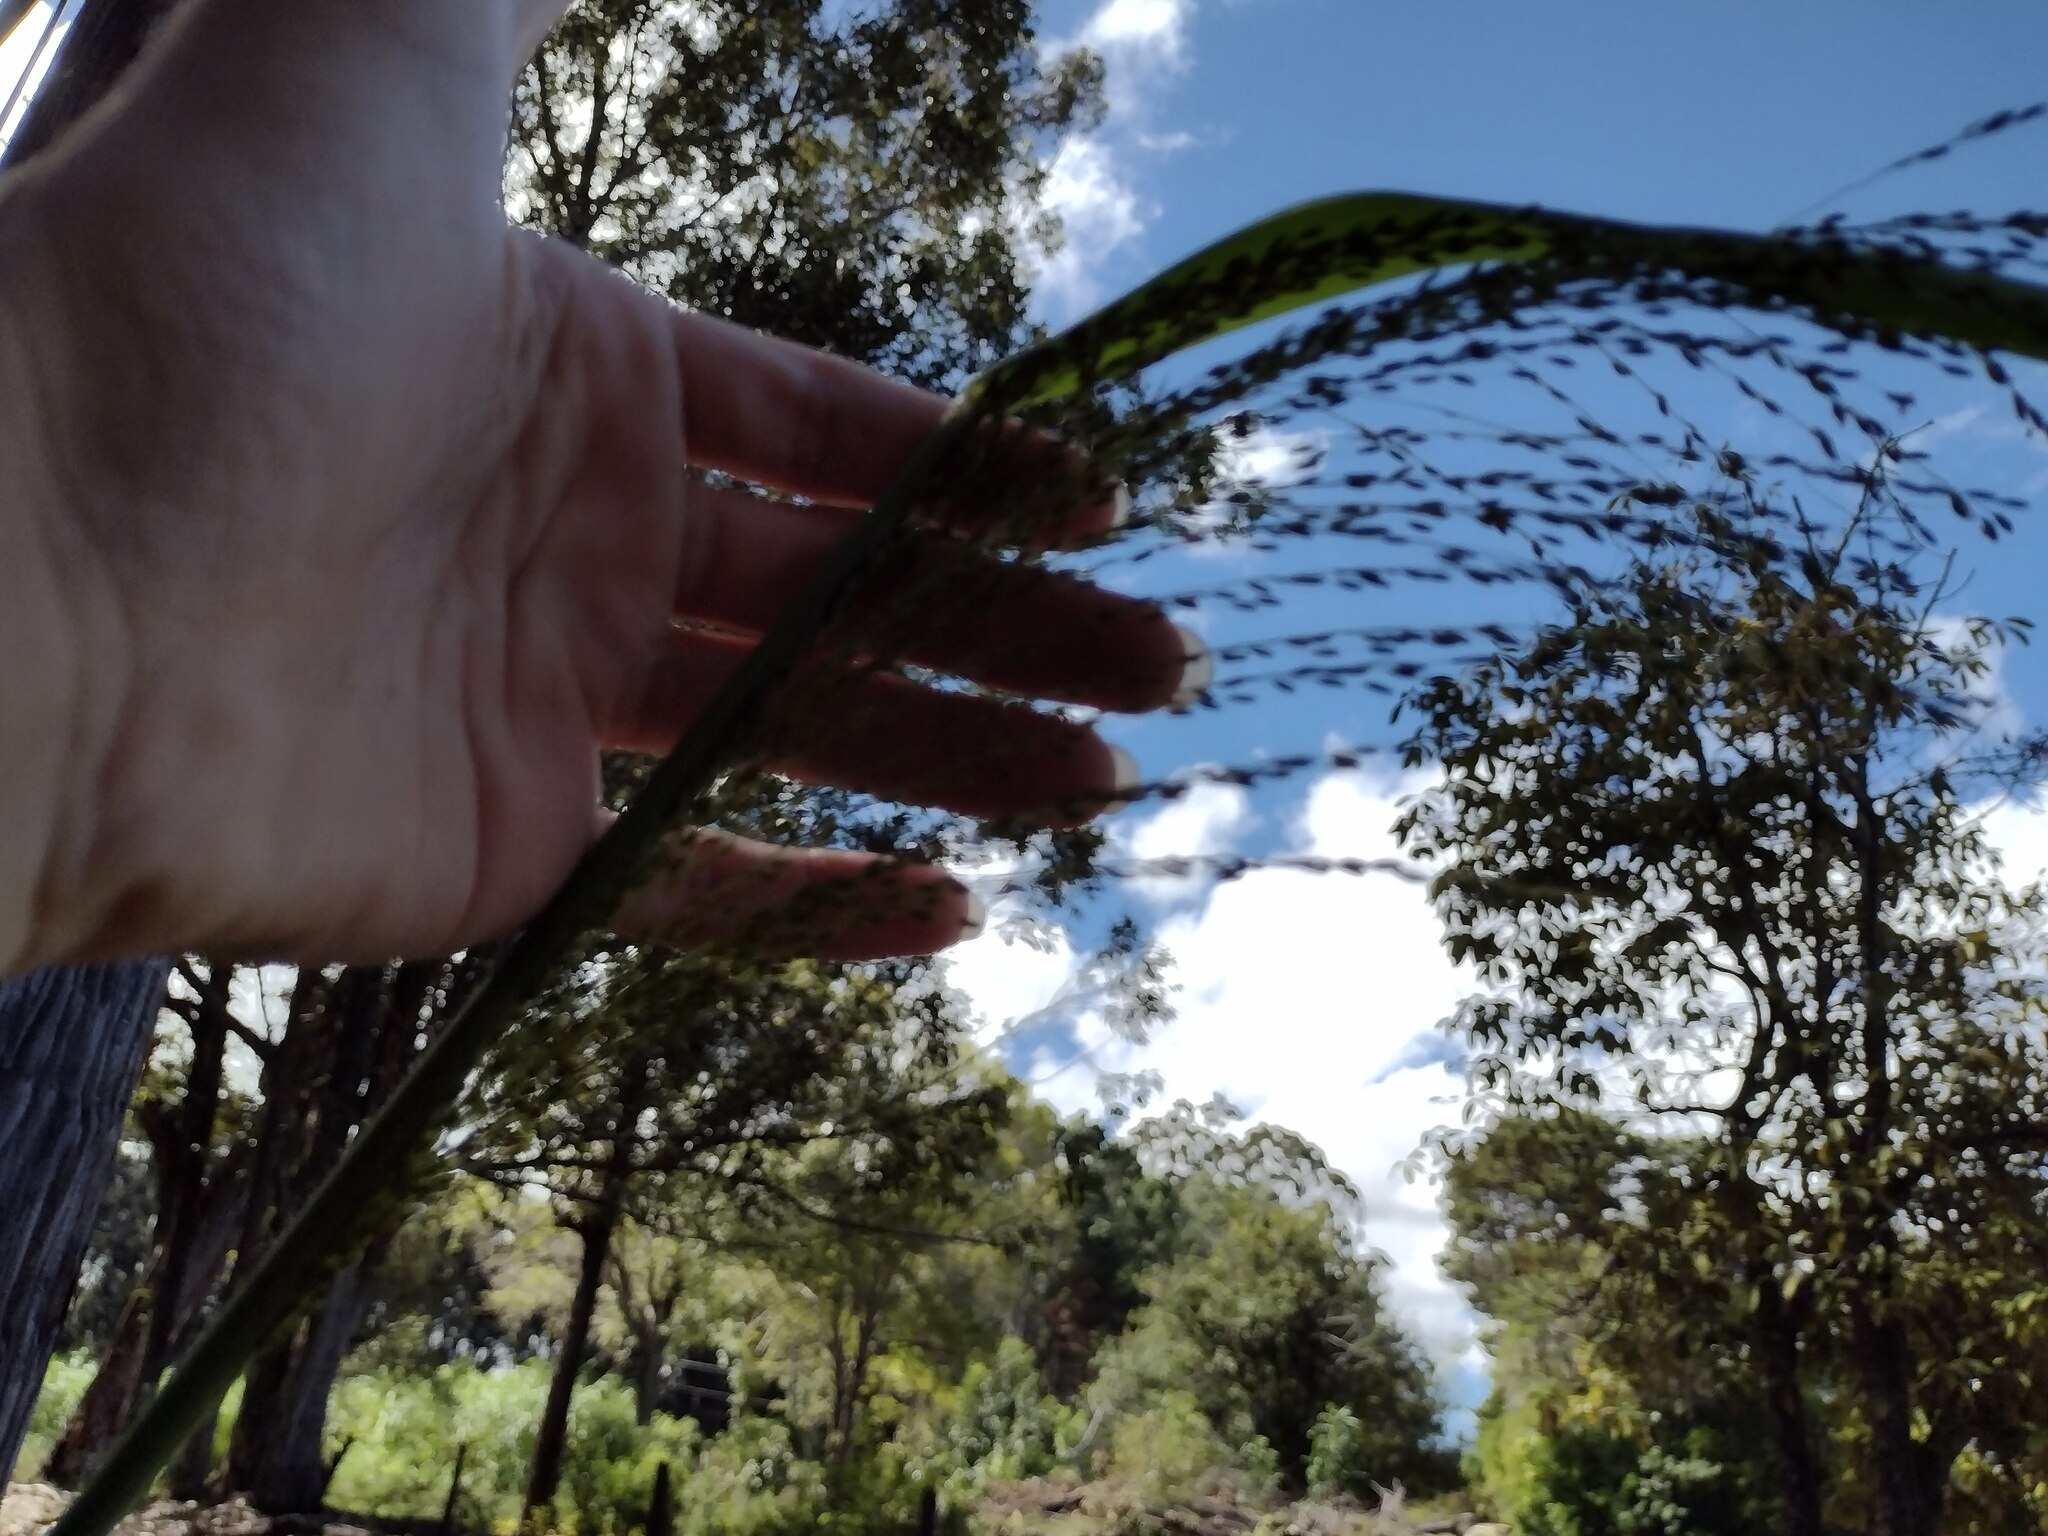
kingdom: Plantae
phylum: Tracheophyta
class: Liliopsida
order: Poales
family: Poaceae
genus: Megathyrsus
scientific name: Megathyrsus maximus
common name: Guineagrass
